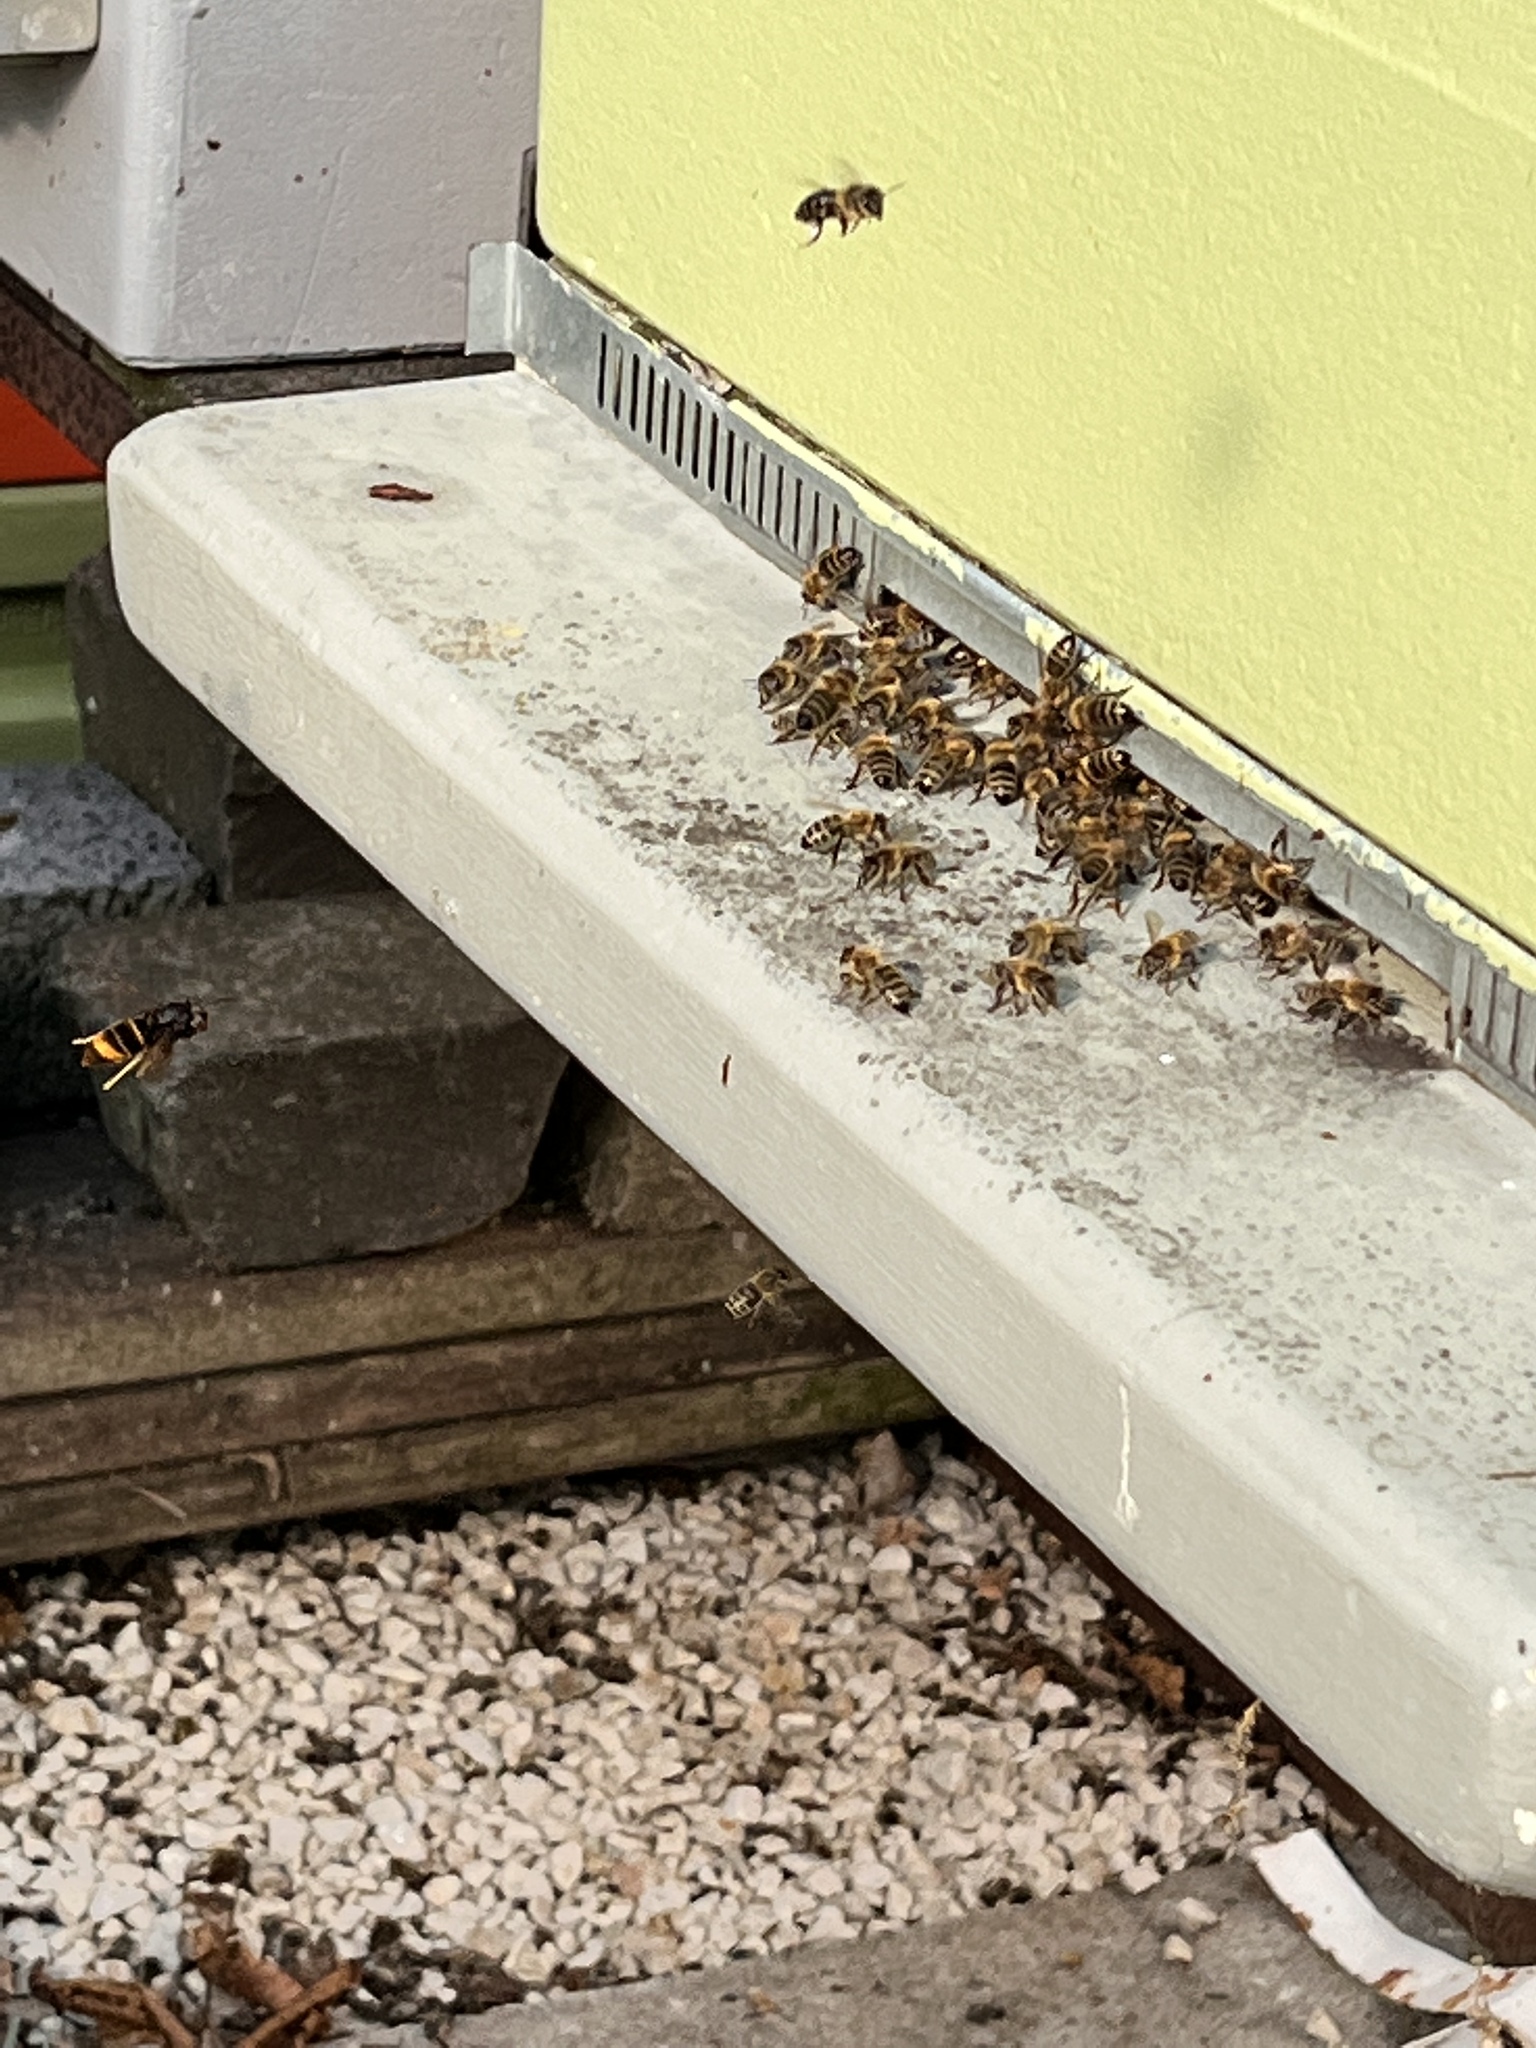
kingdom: Animalia
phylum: Arthropoda
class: Insecta
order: Hymenoptera
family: Vespidae
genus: Vespa
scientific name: Vespa velutina
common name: Asian hornet
